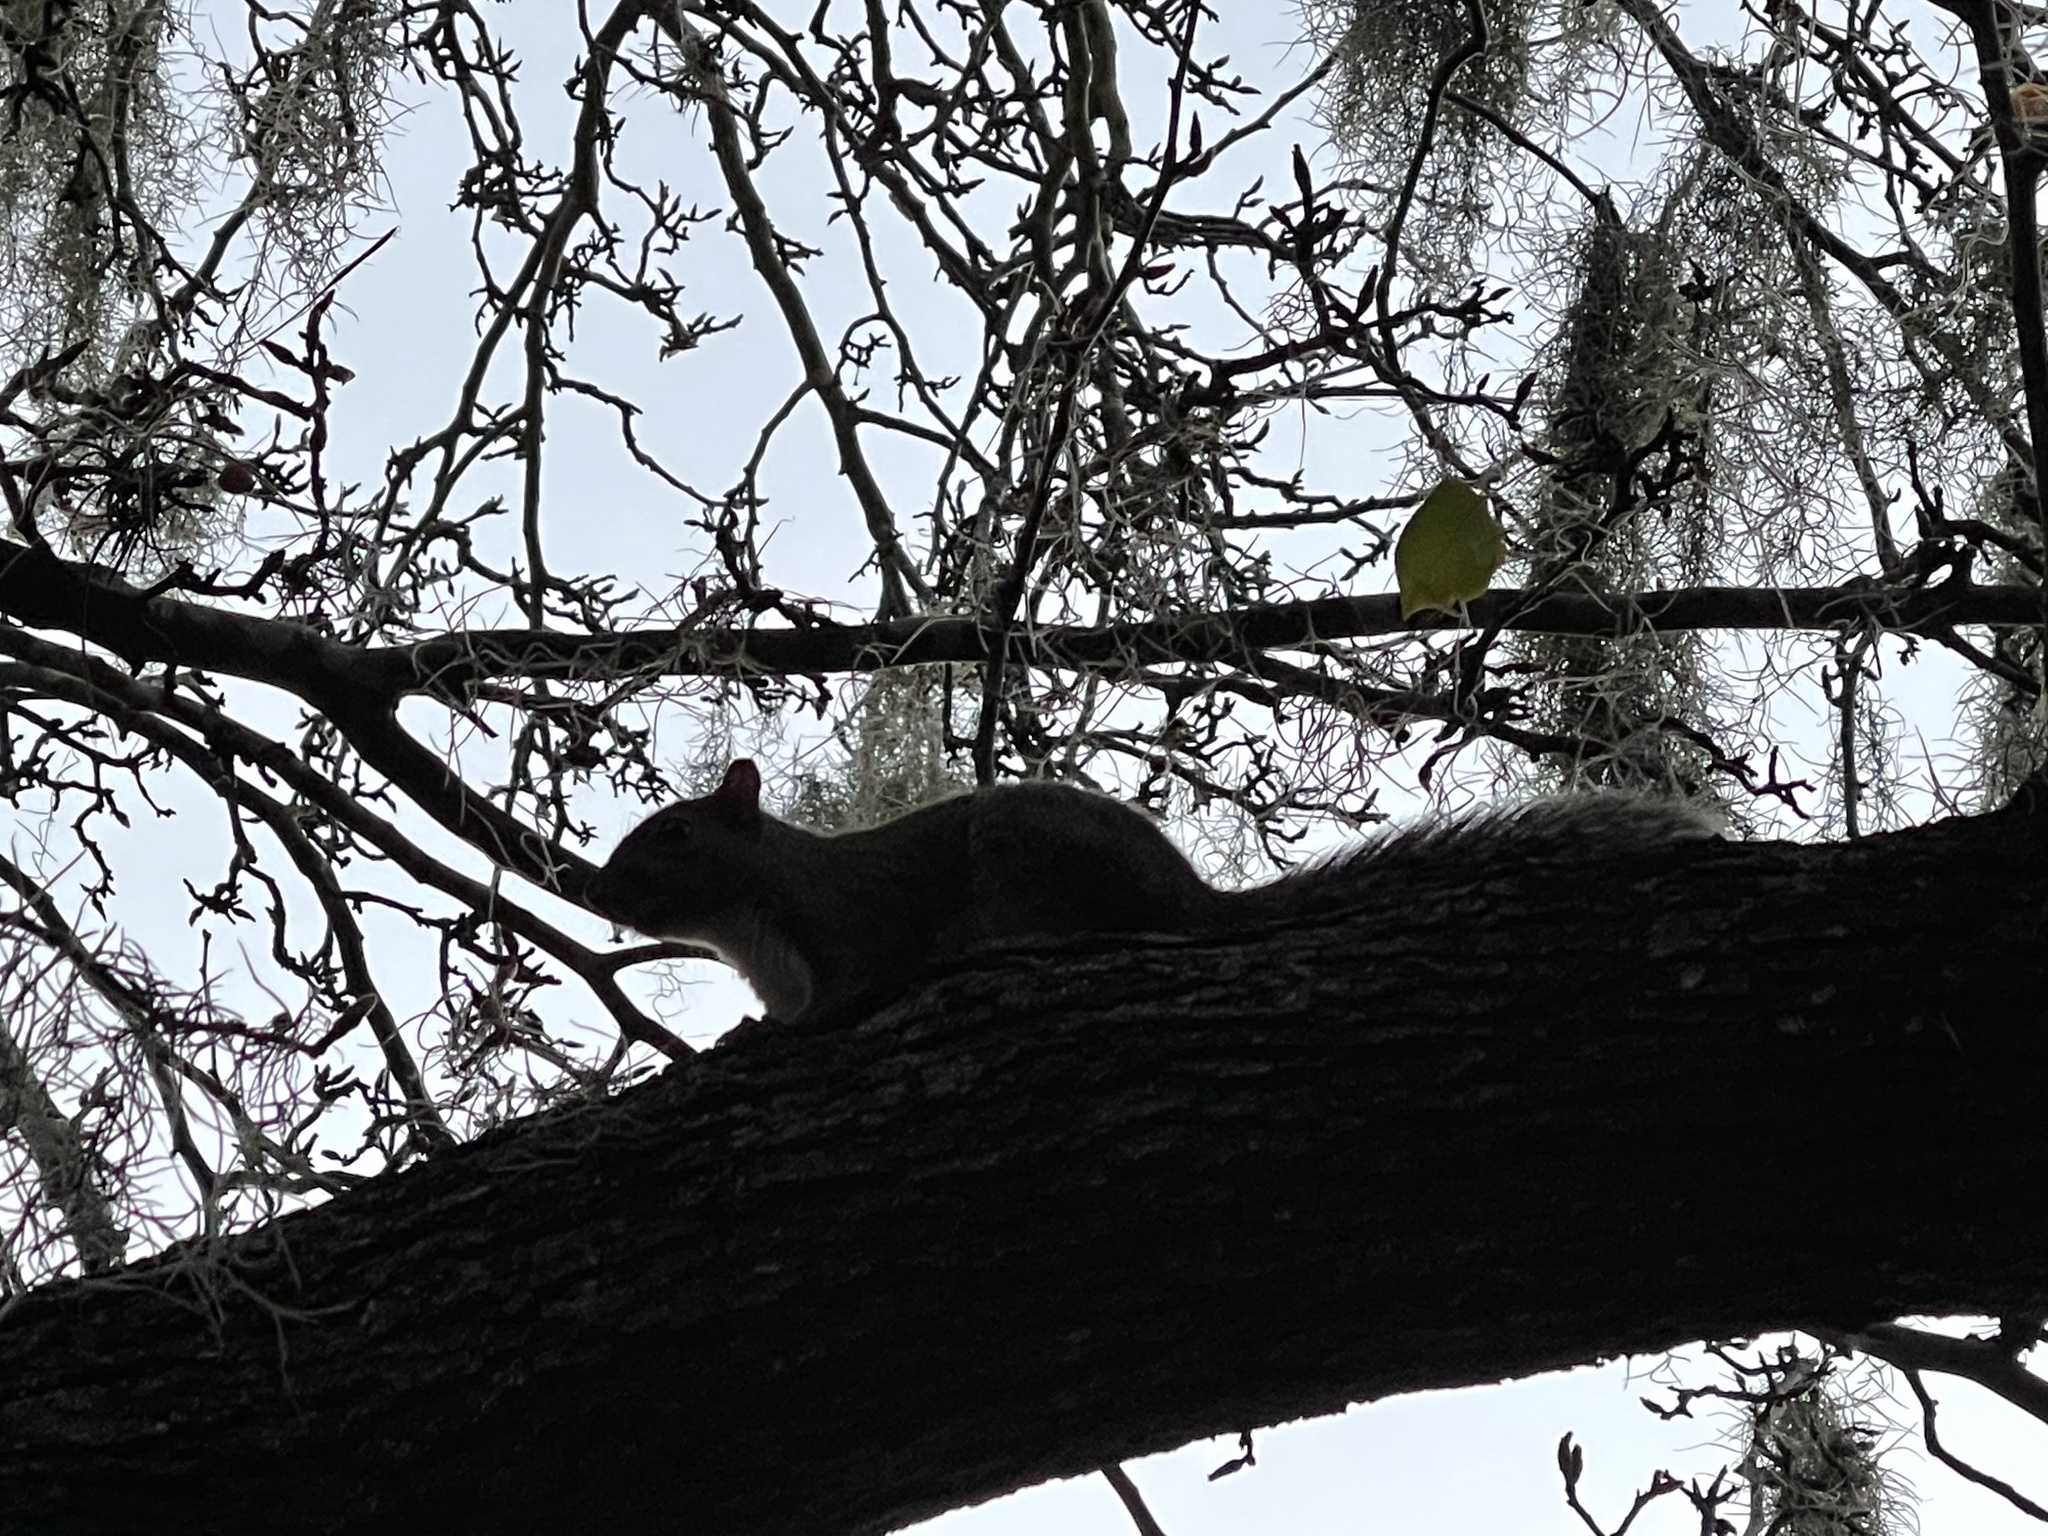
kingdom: Animalia
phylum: Chordata
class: Mammalia
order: Rodentia
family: Sciuridae
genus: Sciurus
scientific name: Sciurus carolinensis
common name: Eastern gray squirrel
